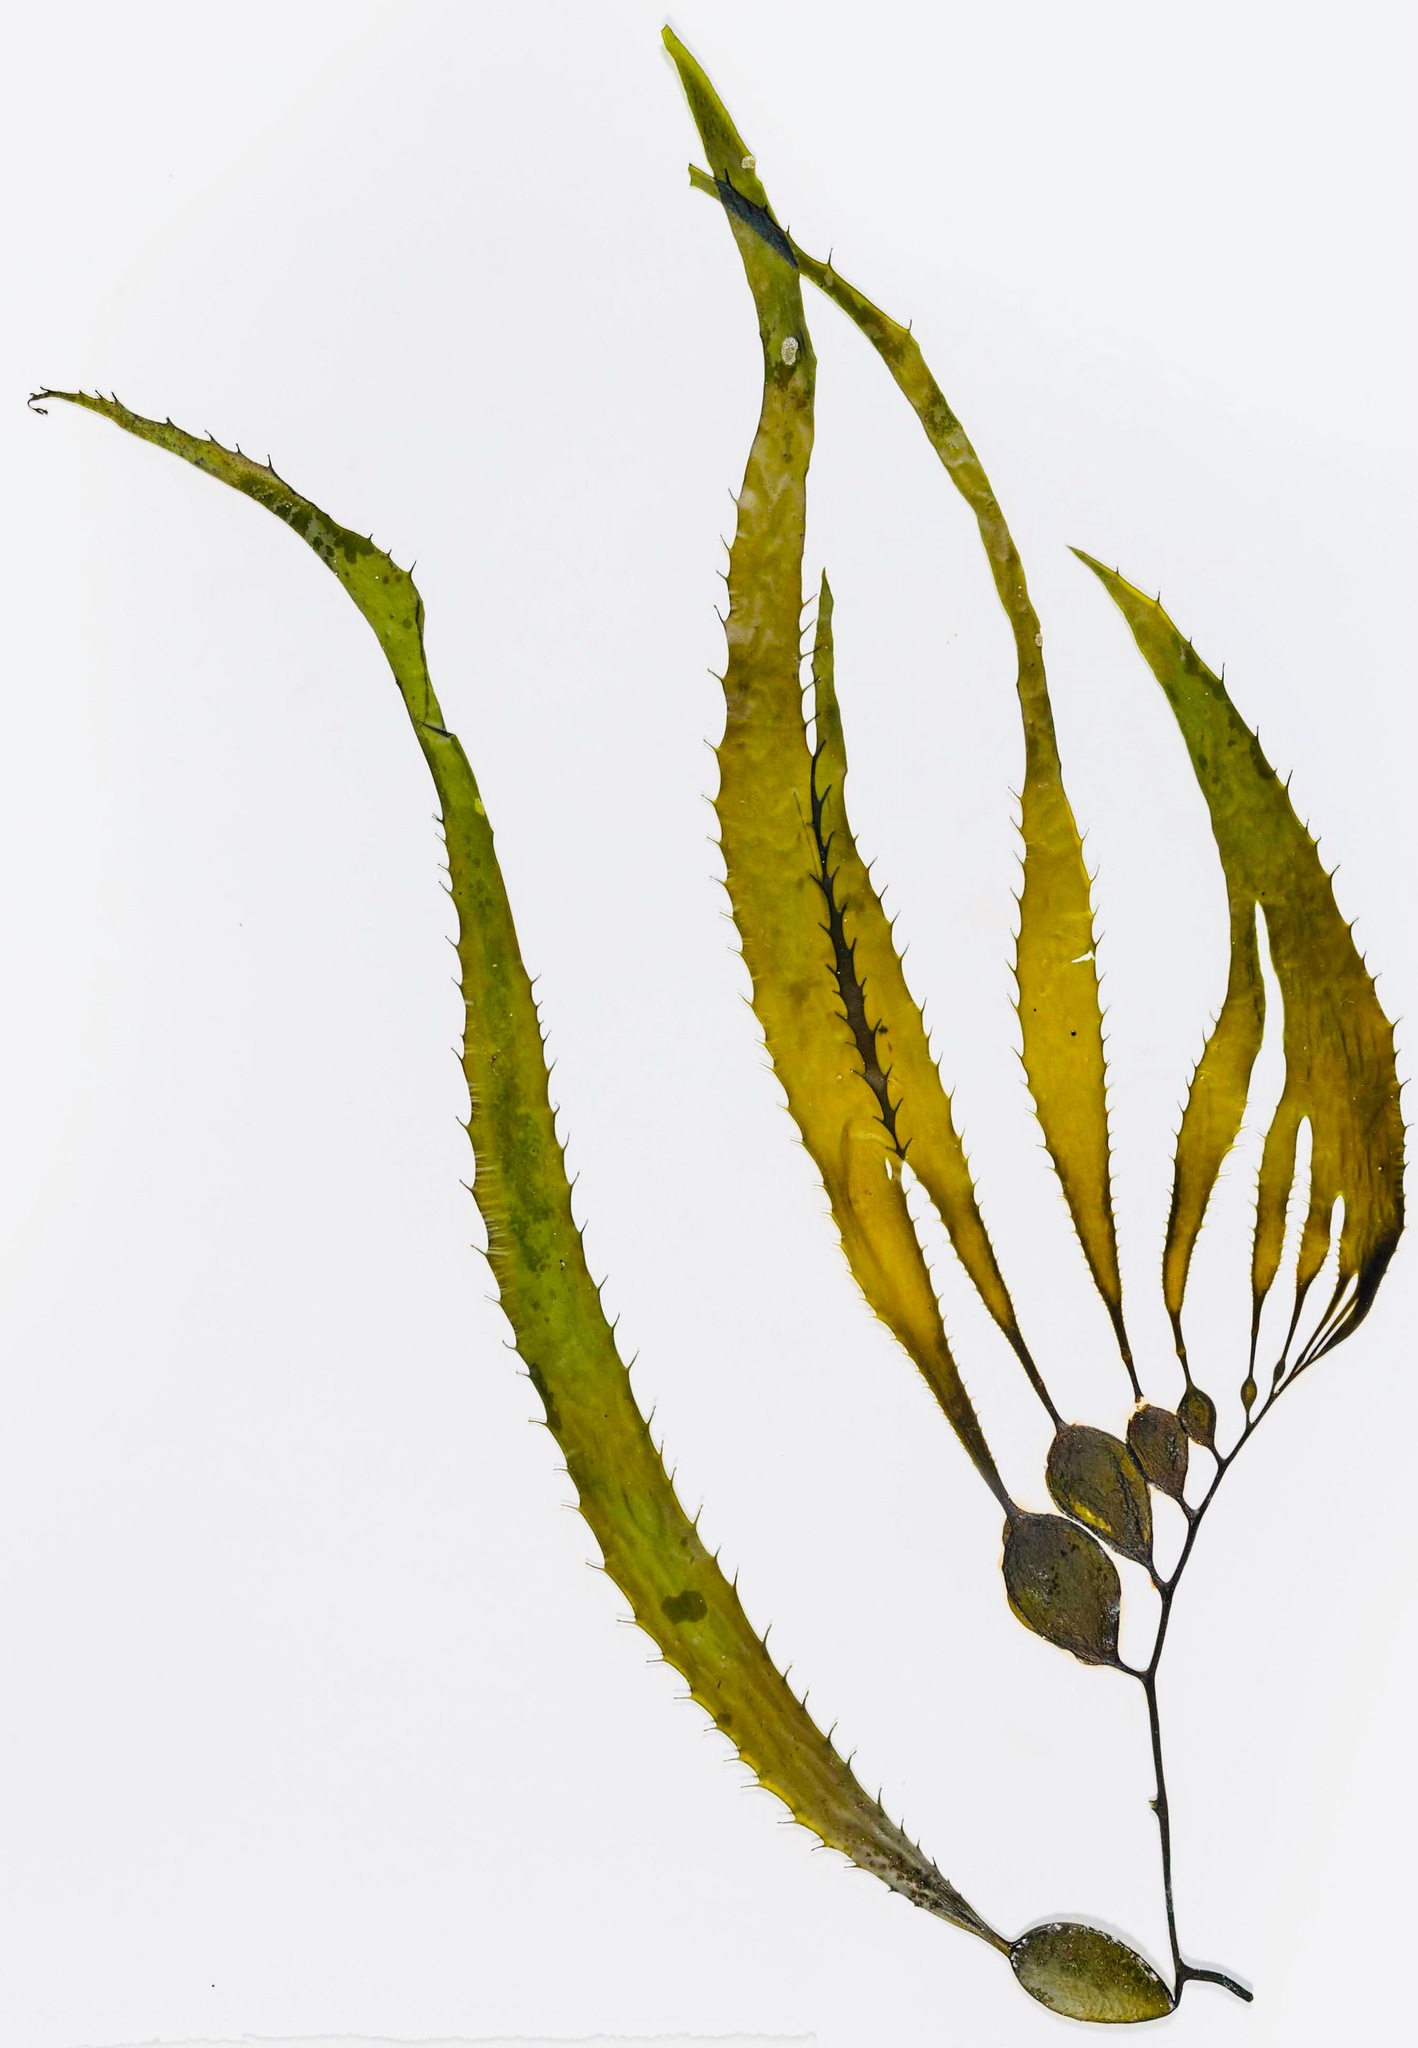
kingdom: Chromista
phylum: Ochrophyta
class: Phaeophyceae
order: Laminariales
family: Laminariaceae
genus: Macrocystis
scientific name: Macrocystis pyrifera
